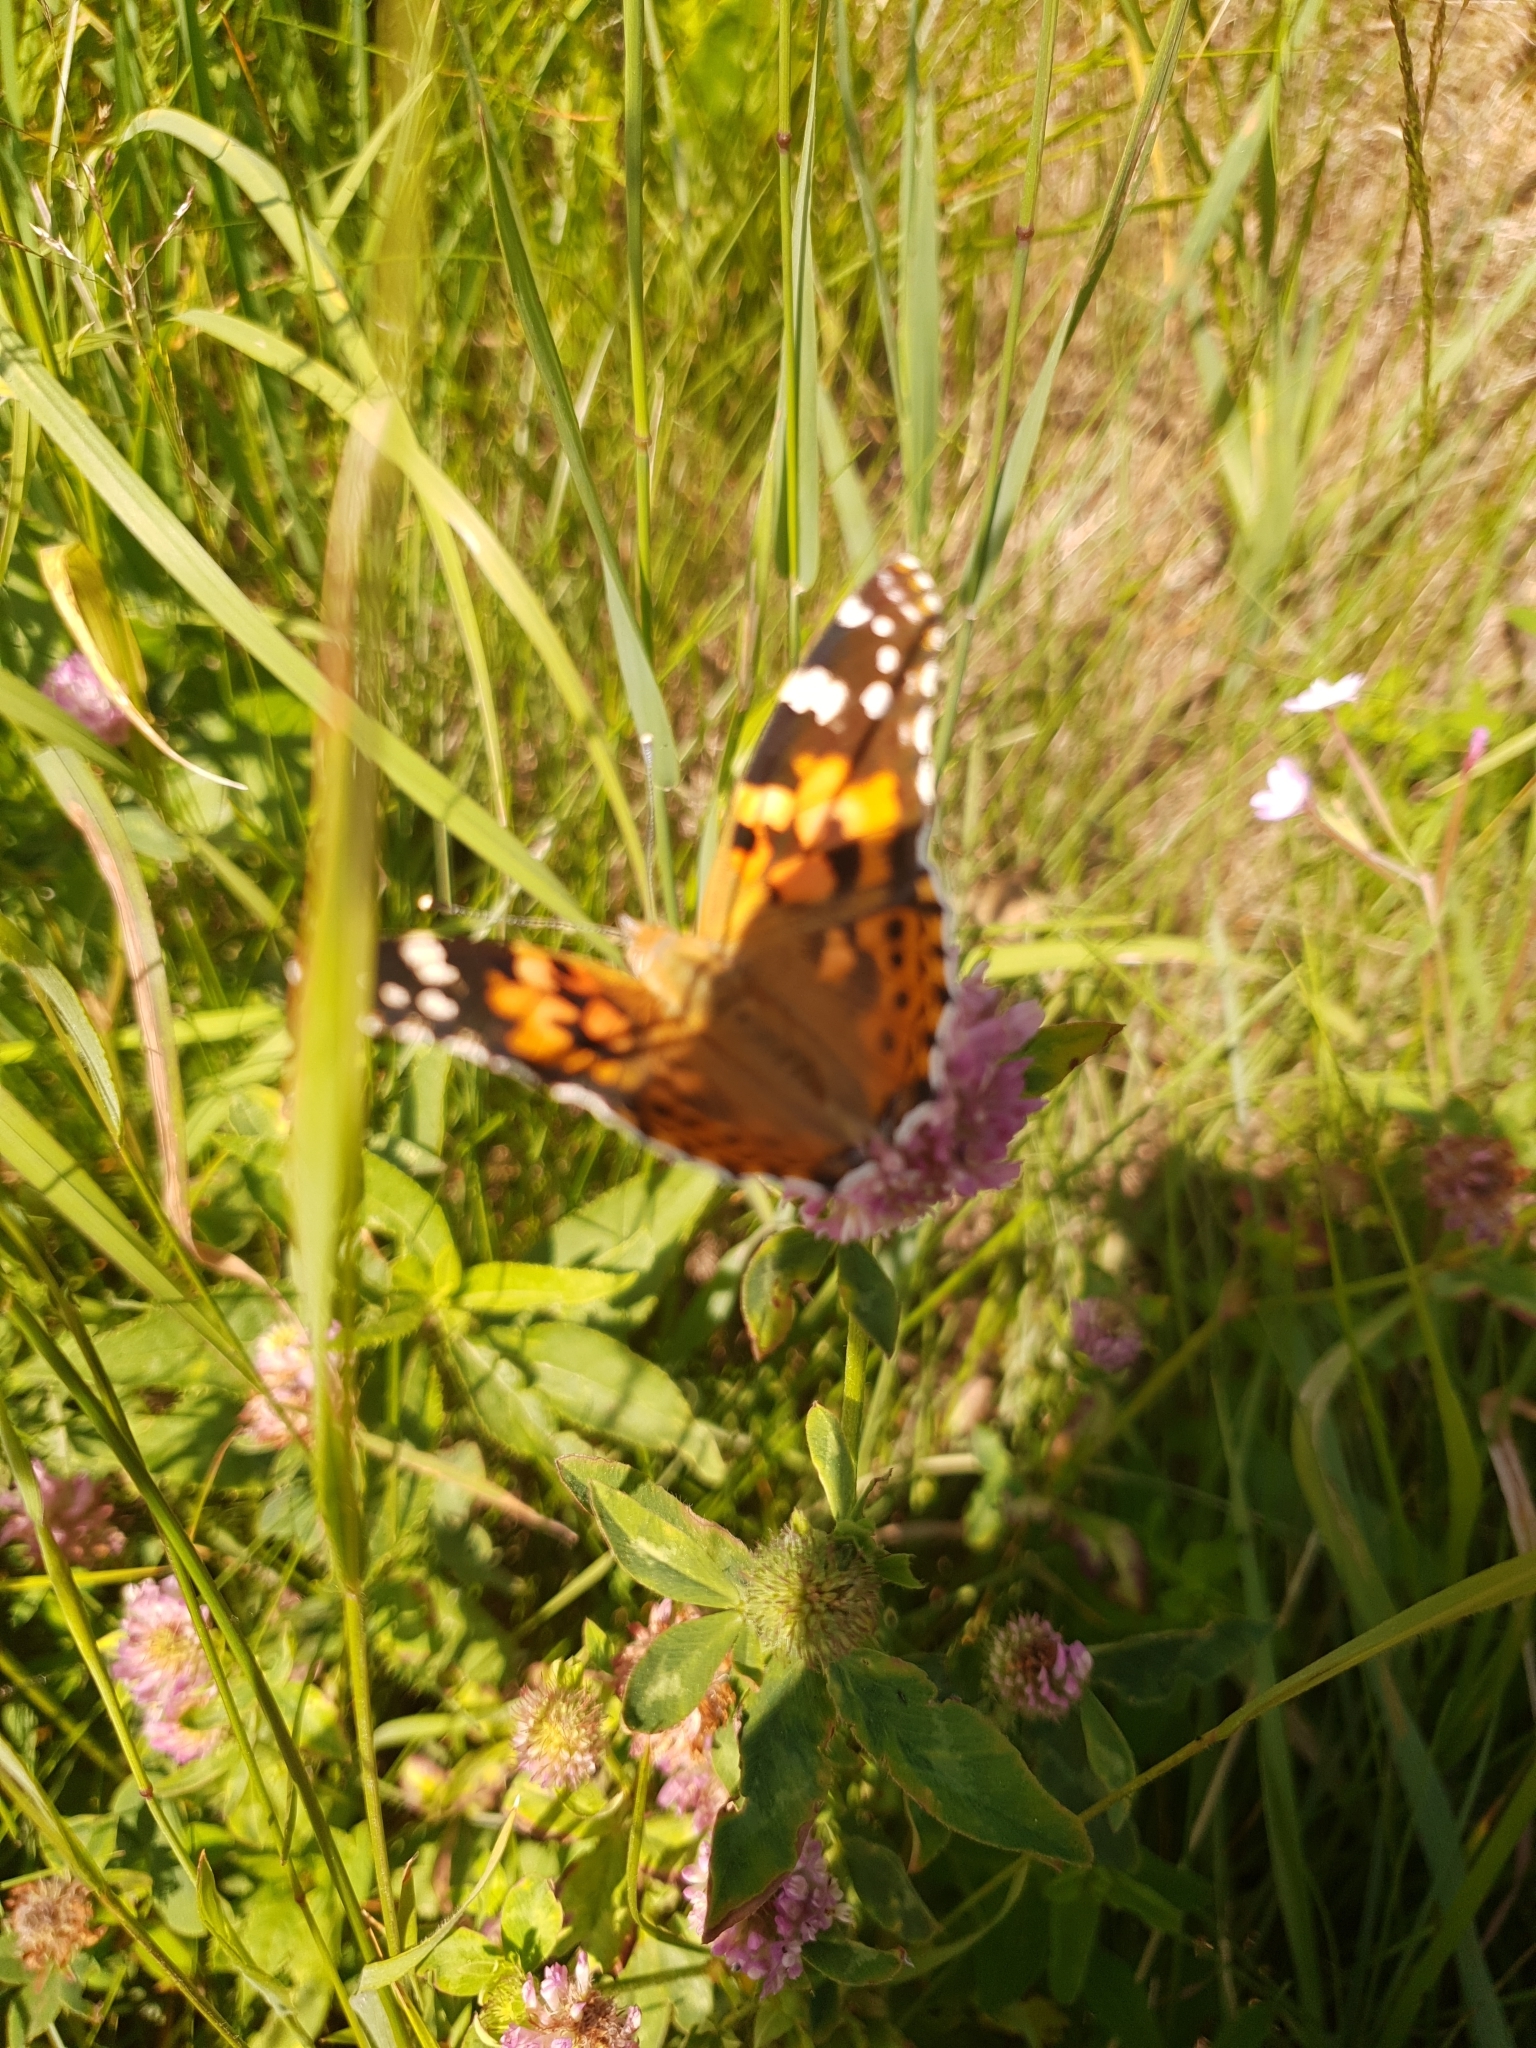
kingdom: Animalia
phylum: Arthropoda
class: Insecta
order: Lepidoptera
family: Nymphalidae
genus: Vanessa
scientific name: Vanessa cardui
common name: Painted lady
